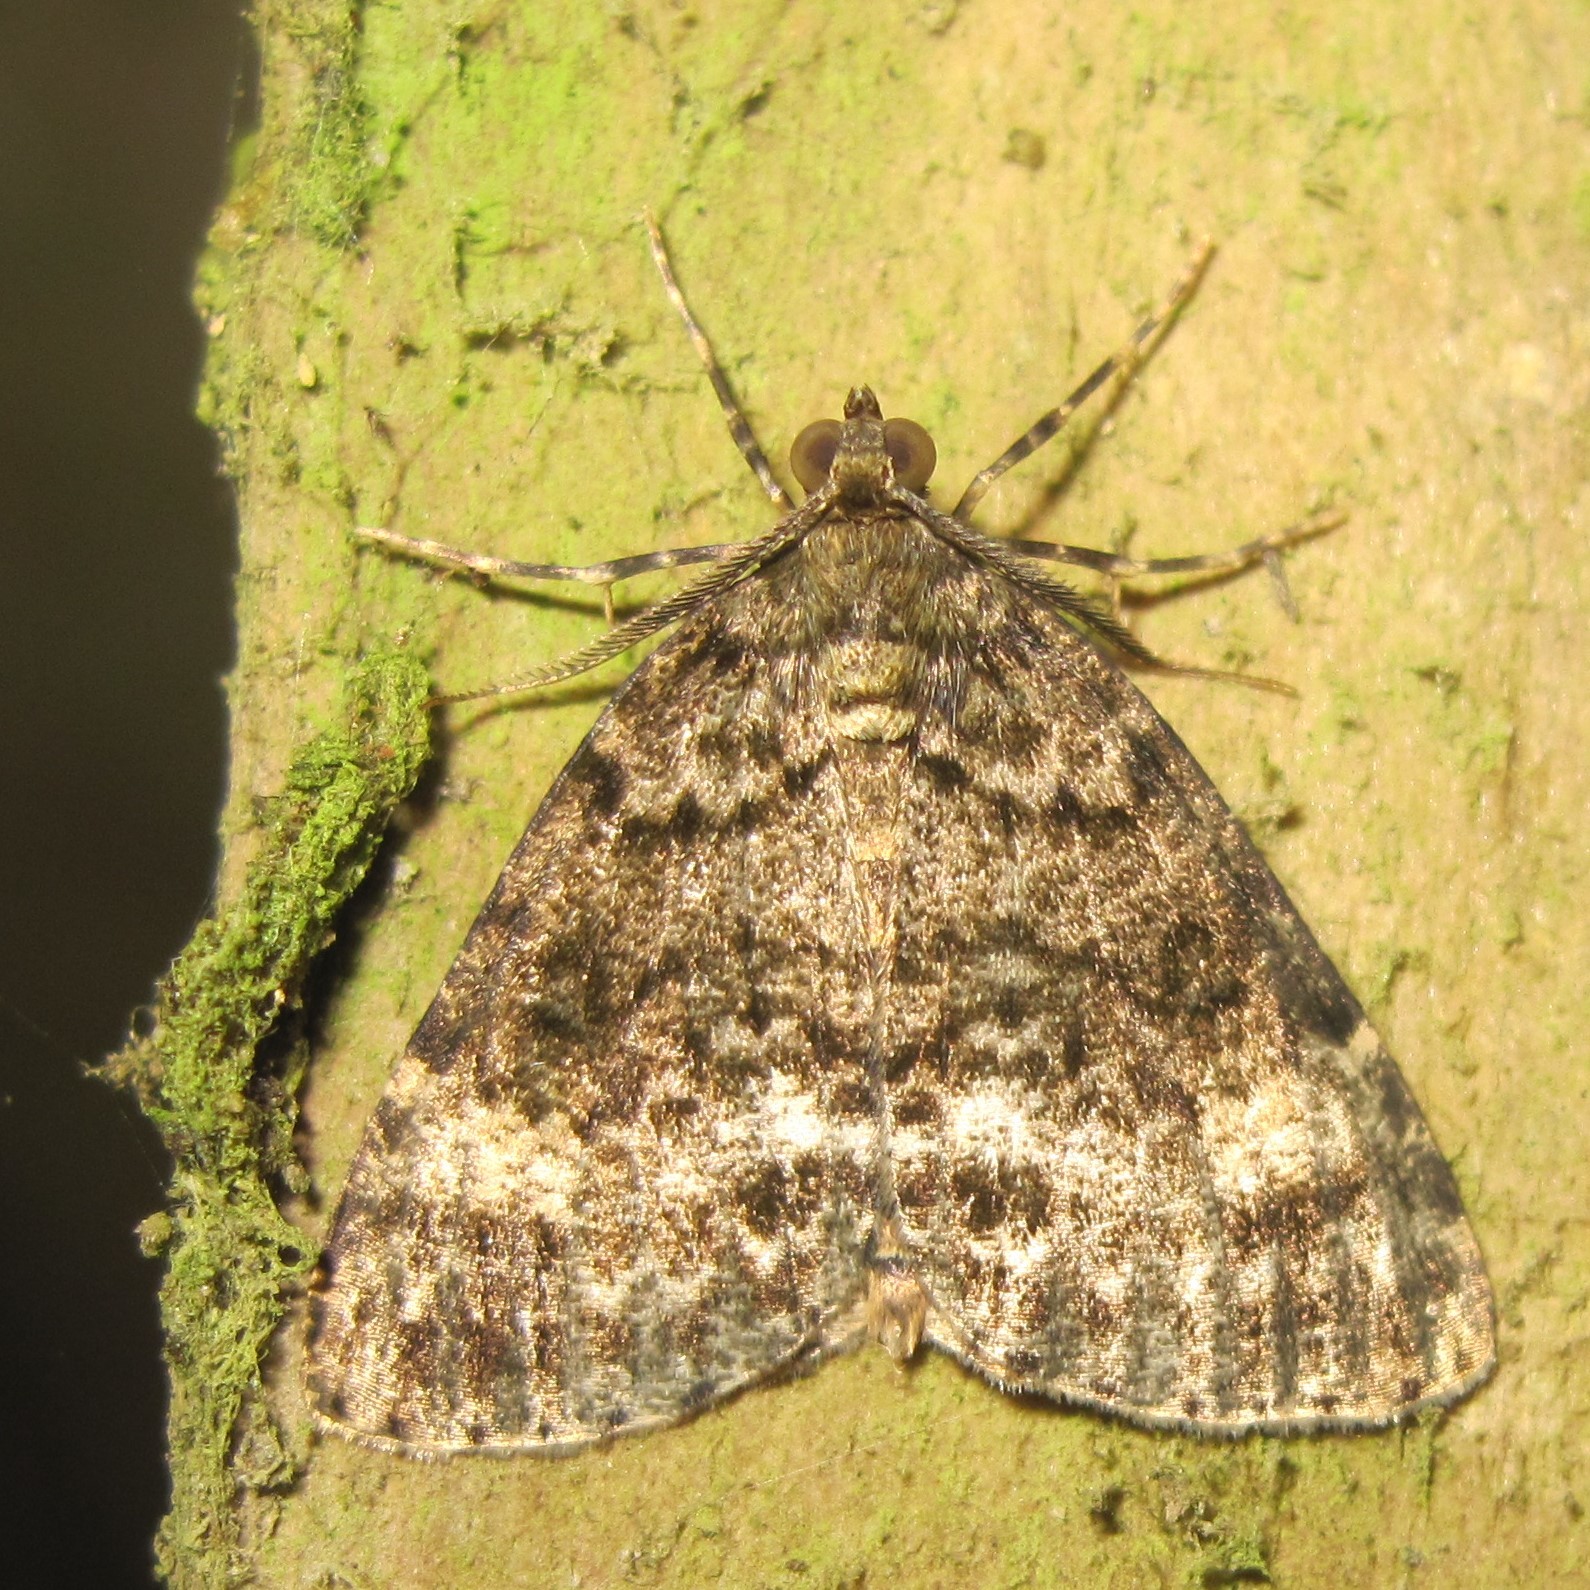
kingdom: Animalia
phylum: Arthropoda
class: Insecta
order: Lepidoptera
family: Geometridae
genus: Pseudocoremia
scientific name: Pseudocoremia indistincta
